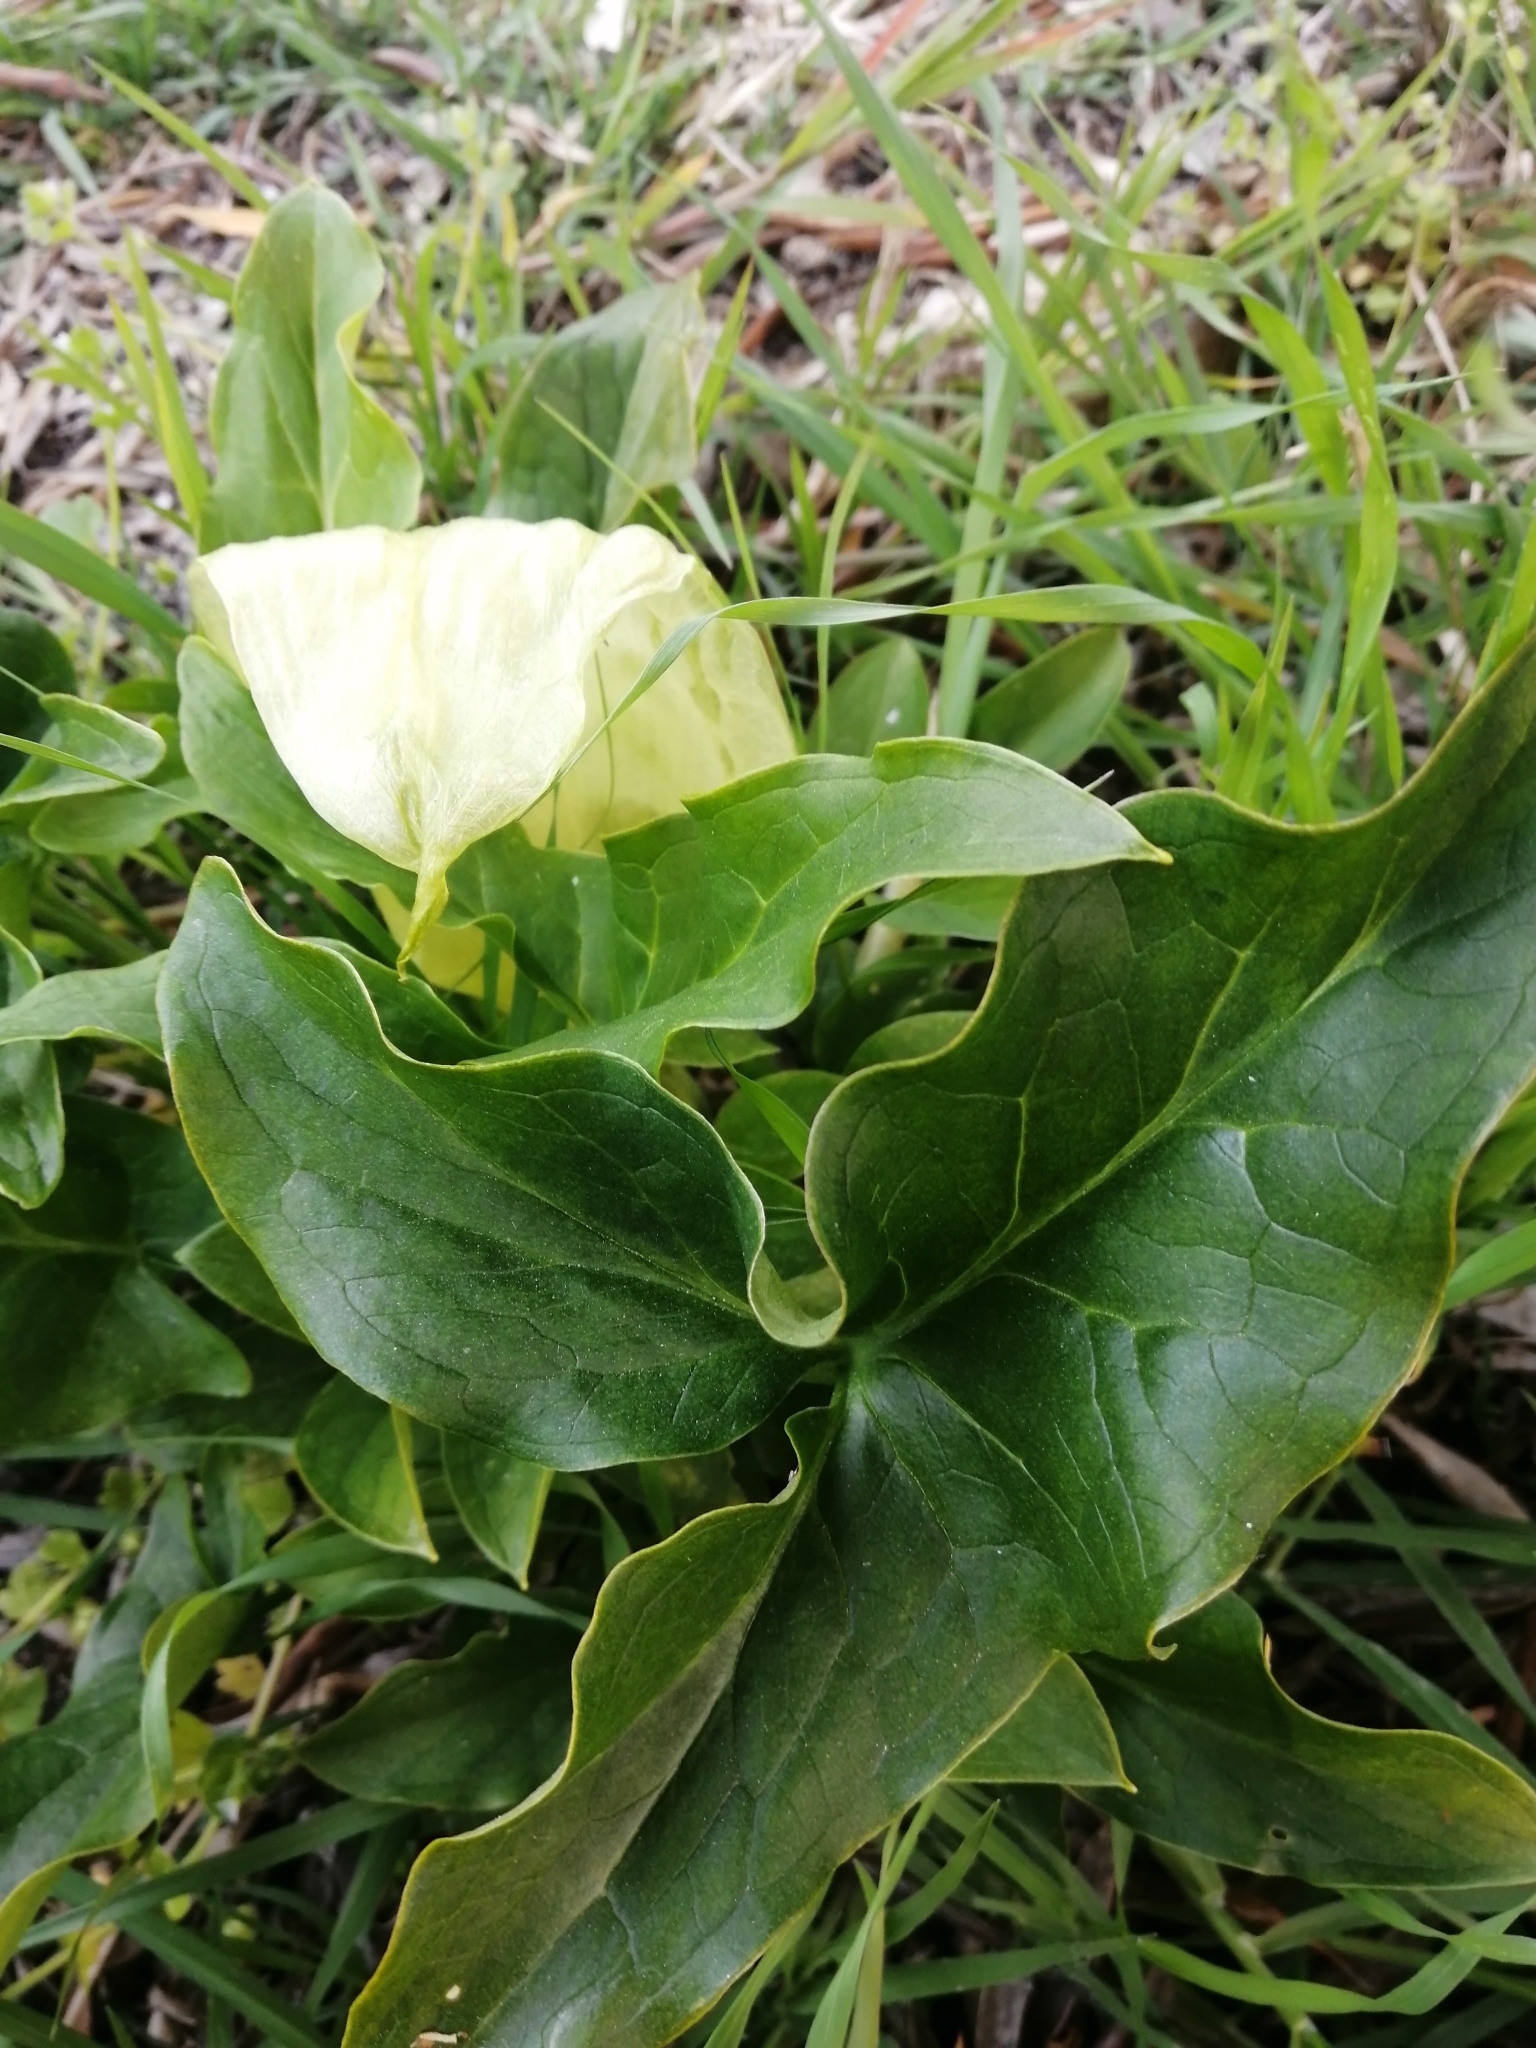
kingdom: Plantae
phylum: Tracheophyta
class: Liliopsida
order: Alismatales
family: Araceae
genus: Arum
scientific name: Arum italicum
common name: Italian lords-and-ladies
